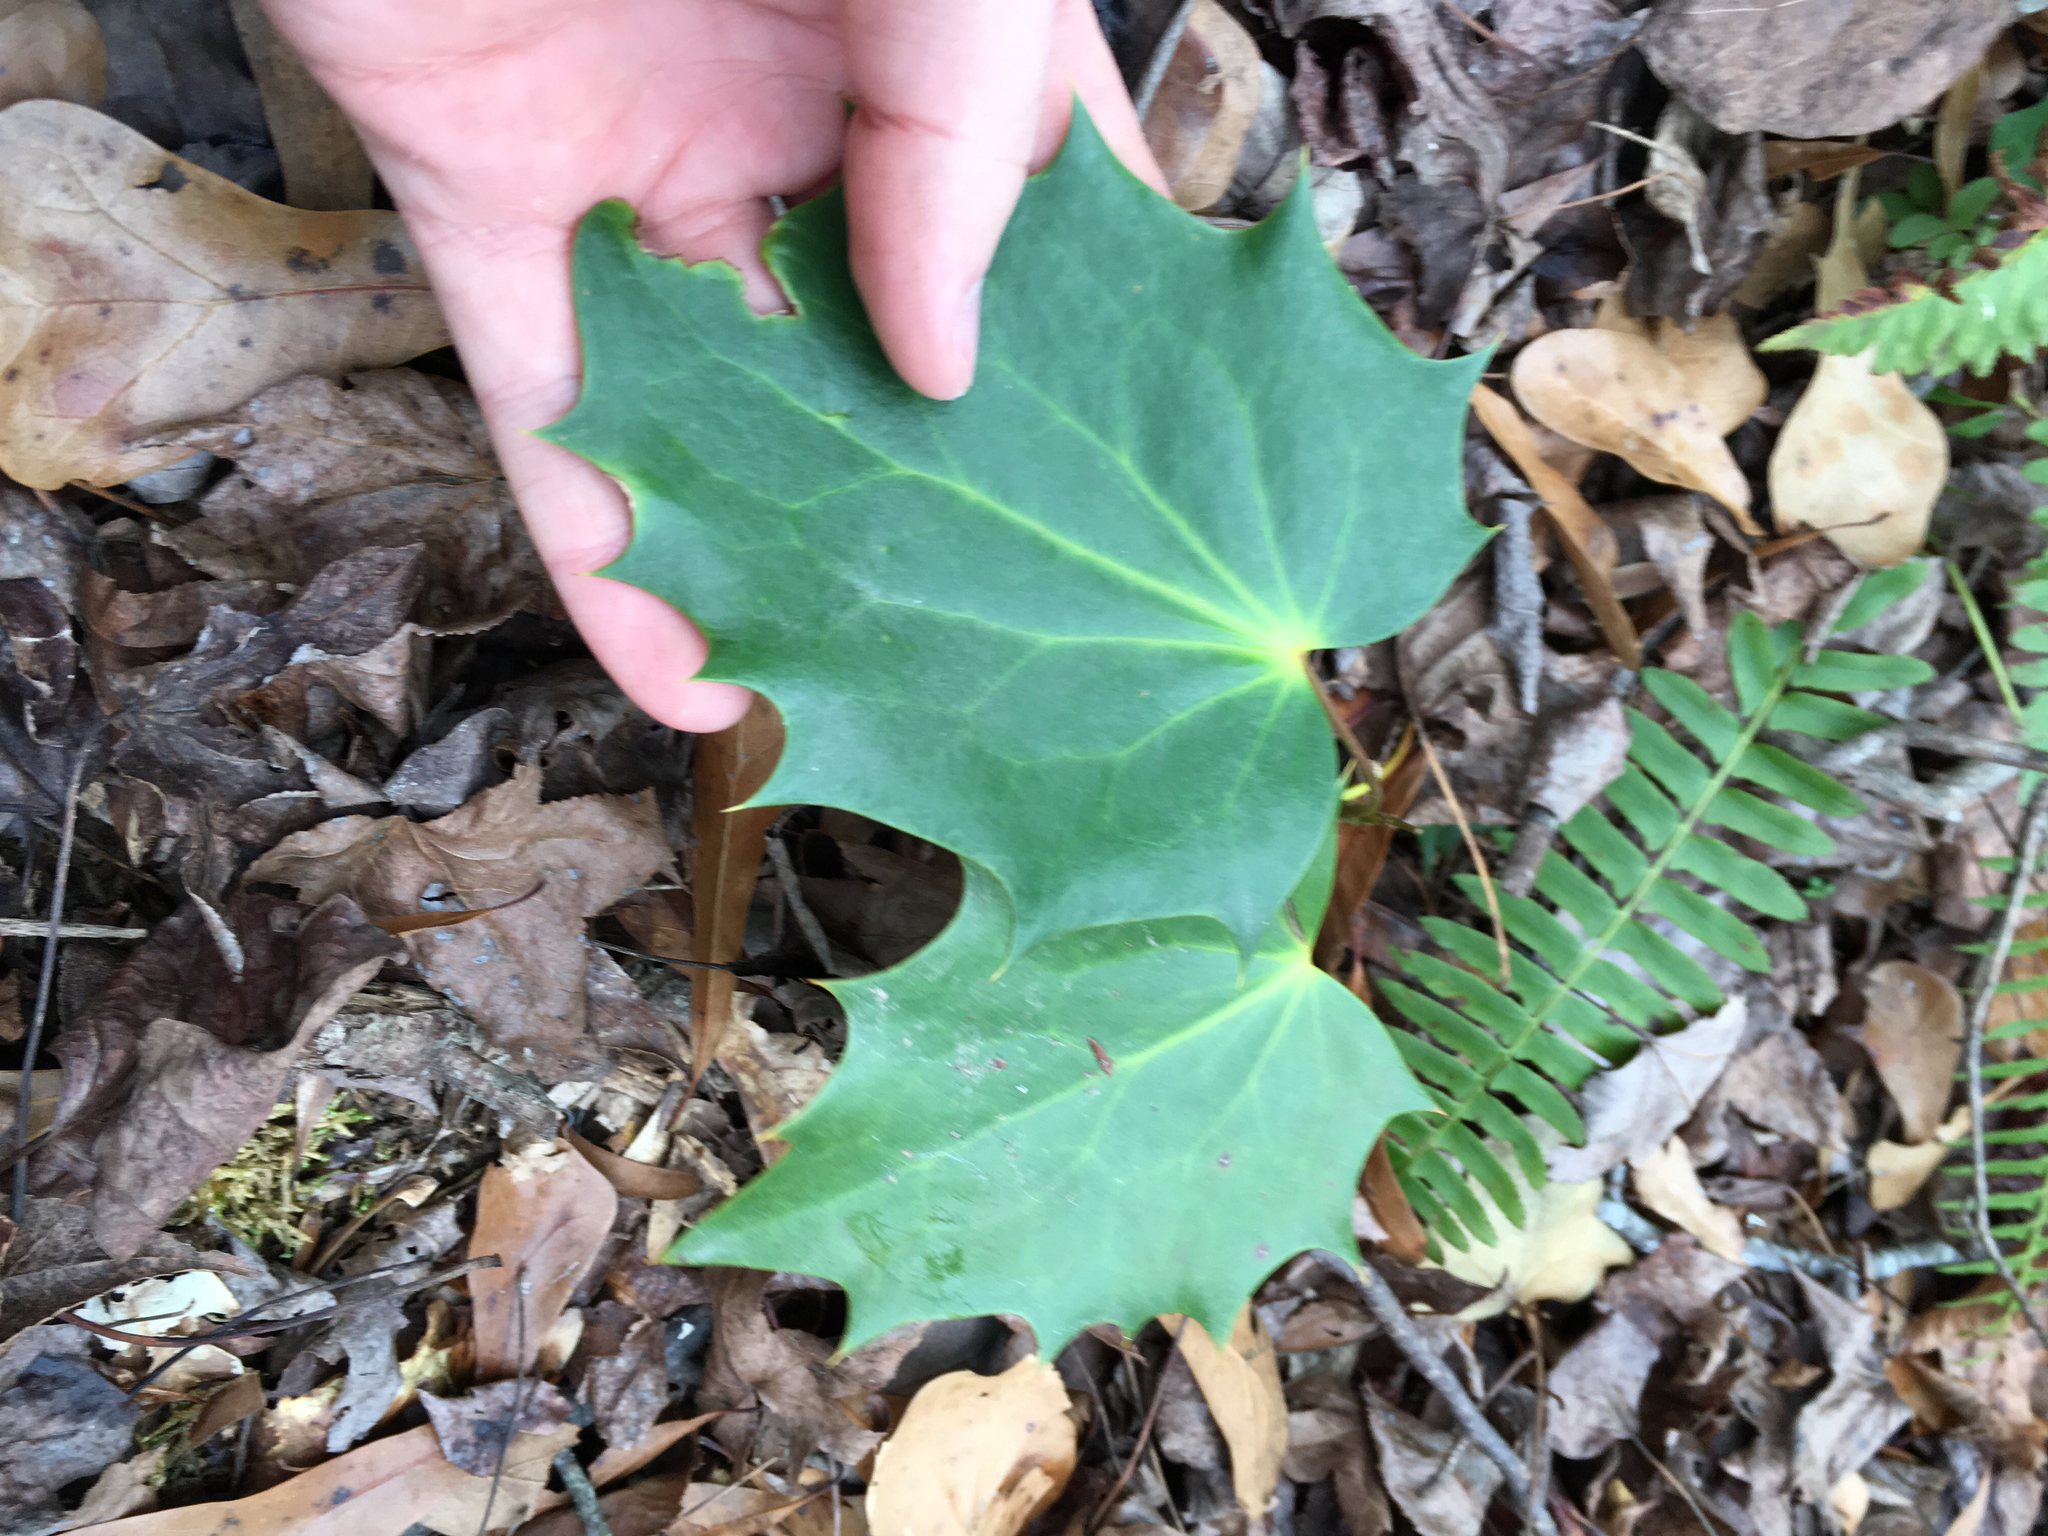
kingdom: Plantae
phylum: Tracheophyta
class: Magnoliopsida
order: Ranunculales
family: Berberidaceae
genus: Mahonia
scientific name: Mahonia bealei
